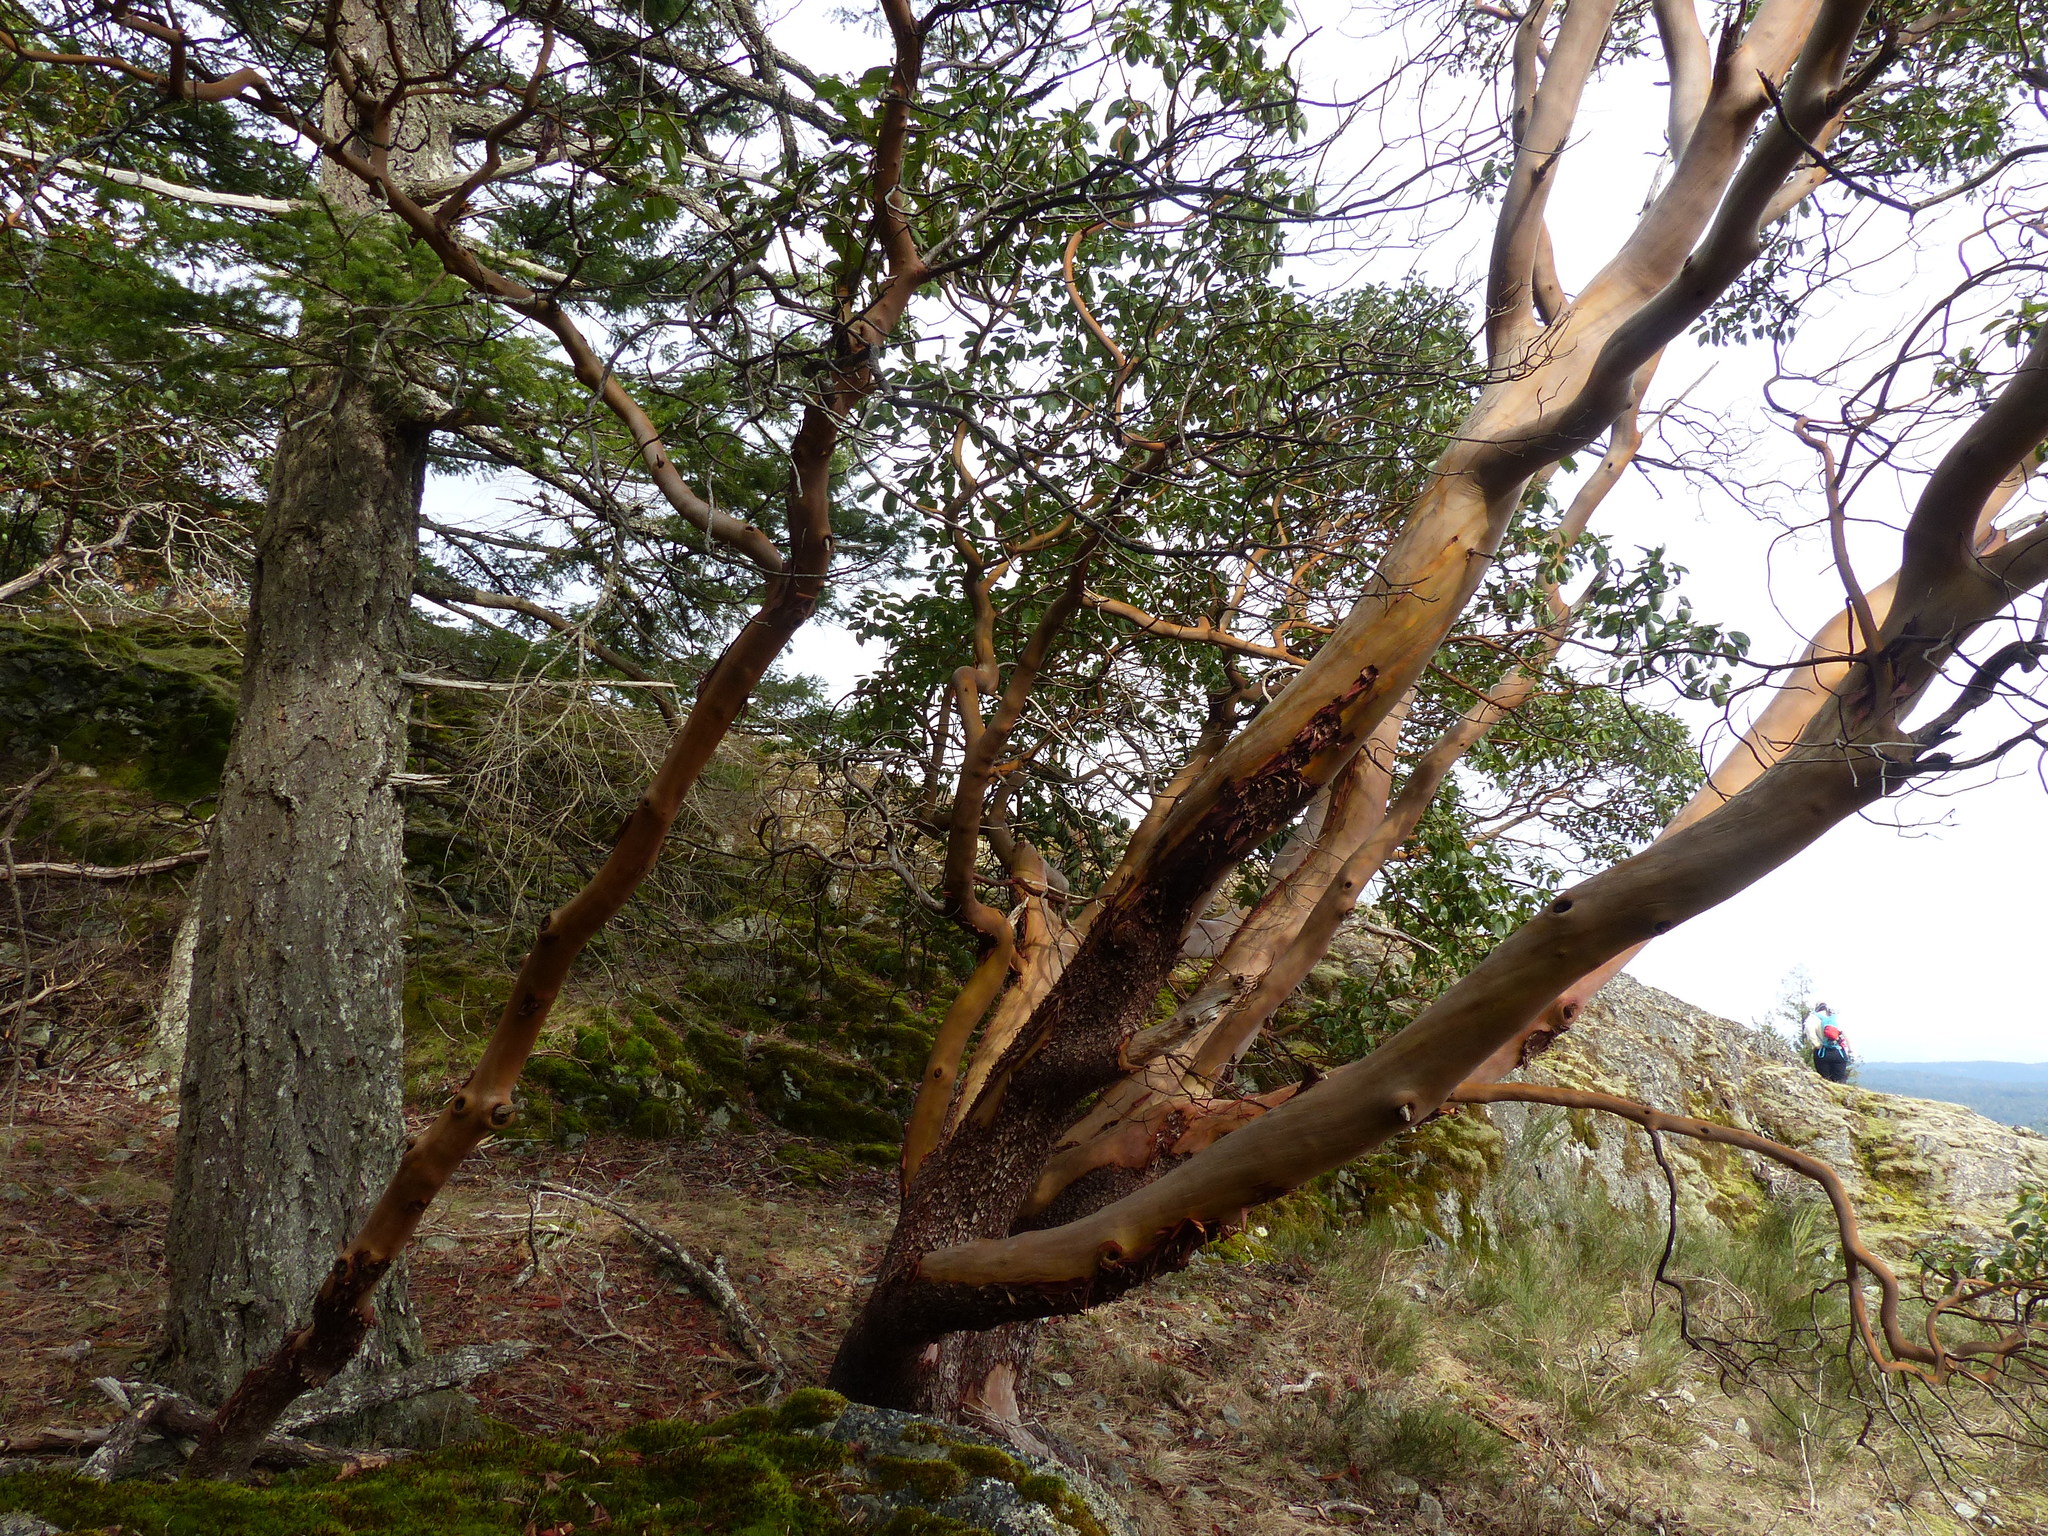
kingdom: Plantae
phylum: Tracheophyta
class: Magnoliopsida
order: Ericales
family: Ericaceae
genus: Arbutus
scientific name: Arbutus menziesii
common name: Pacific madrone
